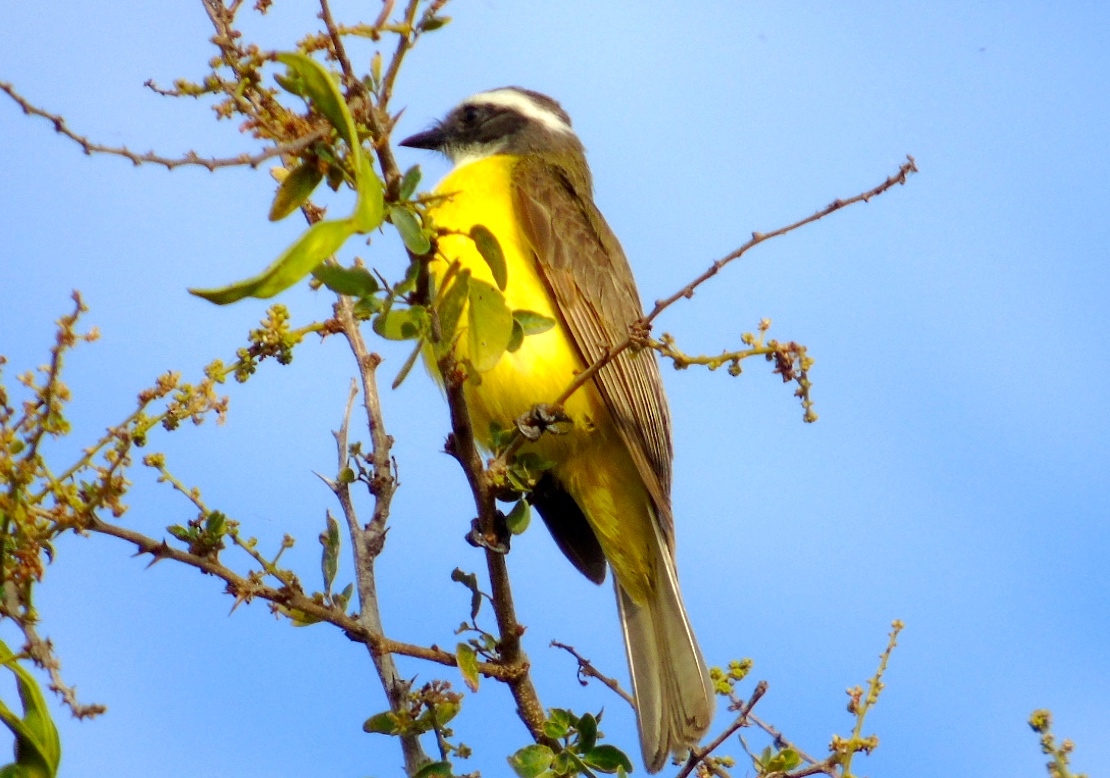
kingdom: Animalia
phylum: Chordata
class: Aves
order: Passeriformes
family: Tyrannidae
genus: Myiozetetes
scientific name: Myiozetetes similis
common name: Social flycatcher
